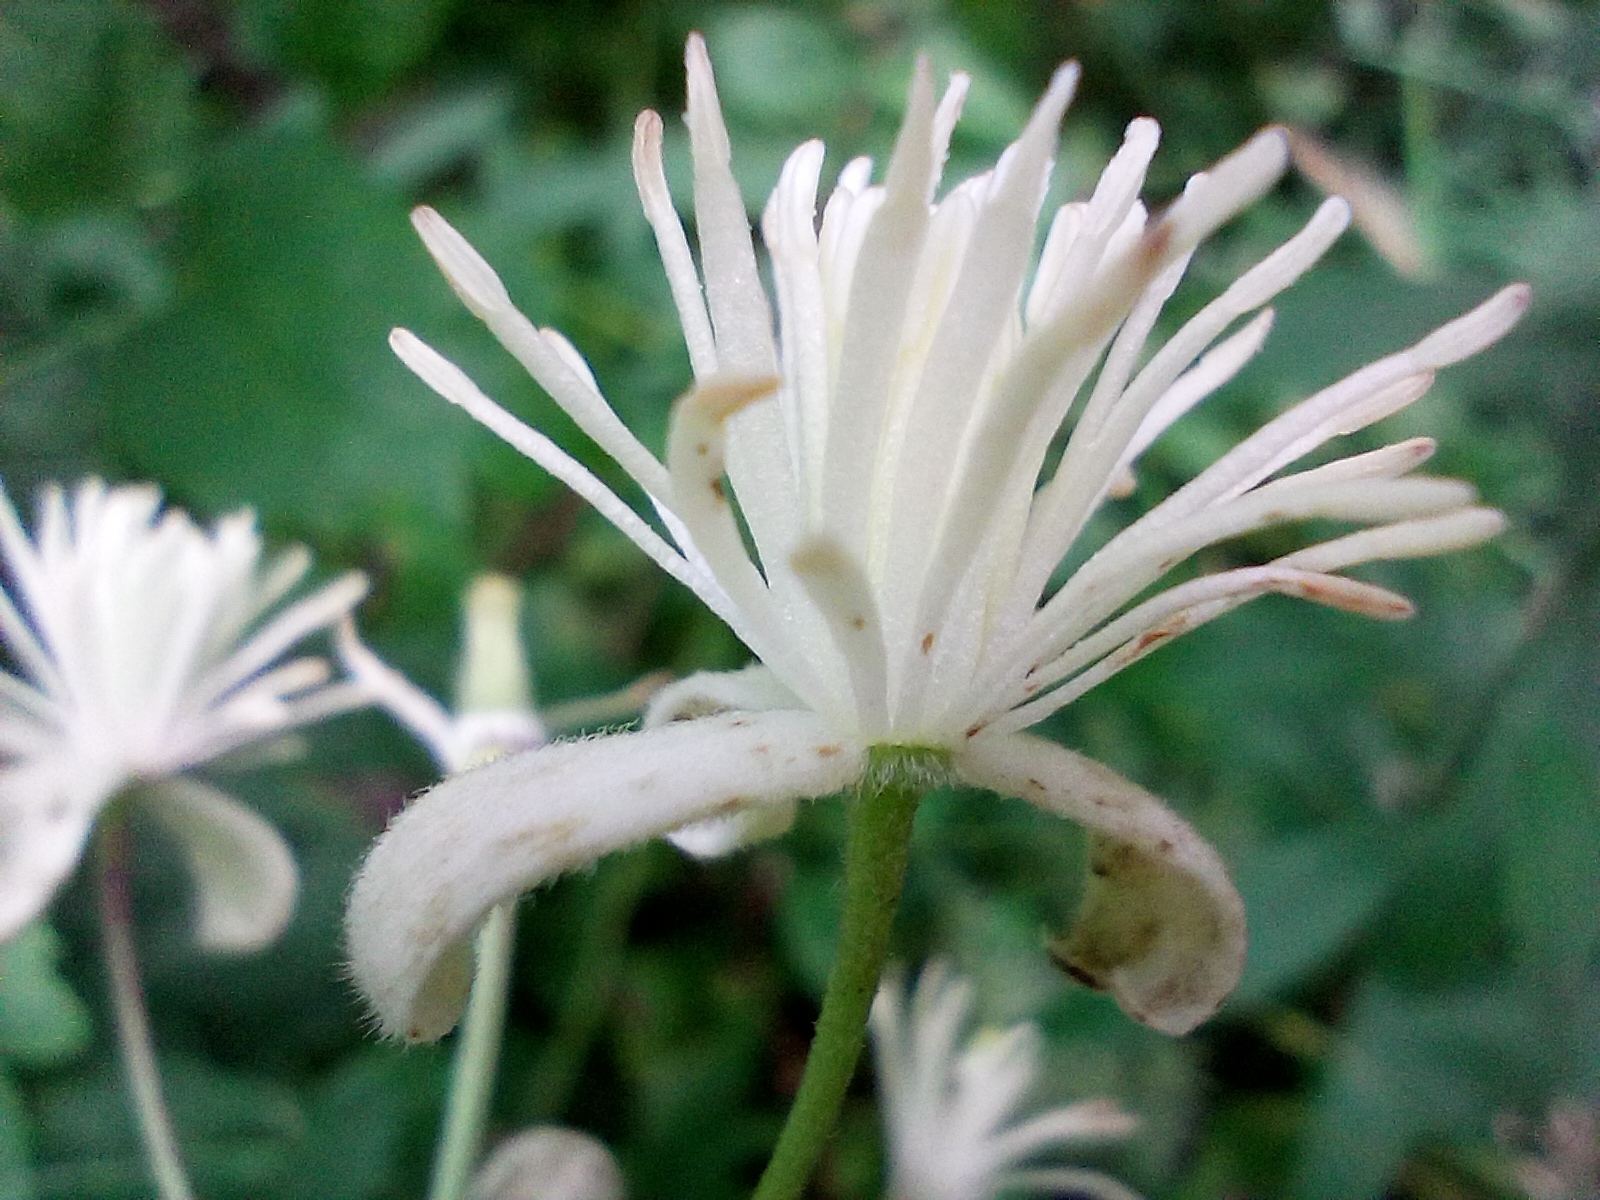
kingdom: Plantae
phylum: Tracheophyta
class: Magnoliopsida
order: Ranunculales
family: Ranunculaceae
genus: Clematis
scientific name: Clematis vitalba
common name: Evergreen clematis
